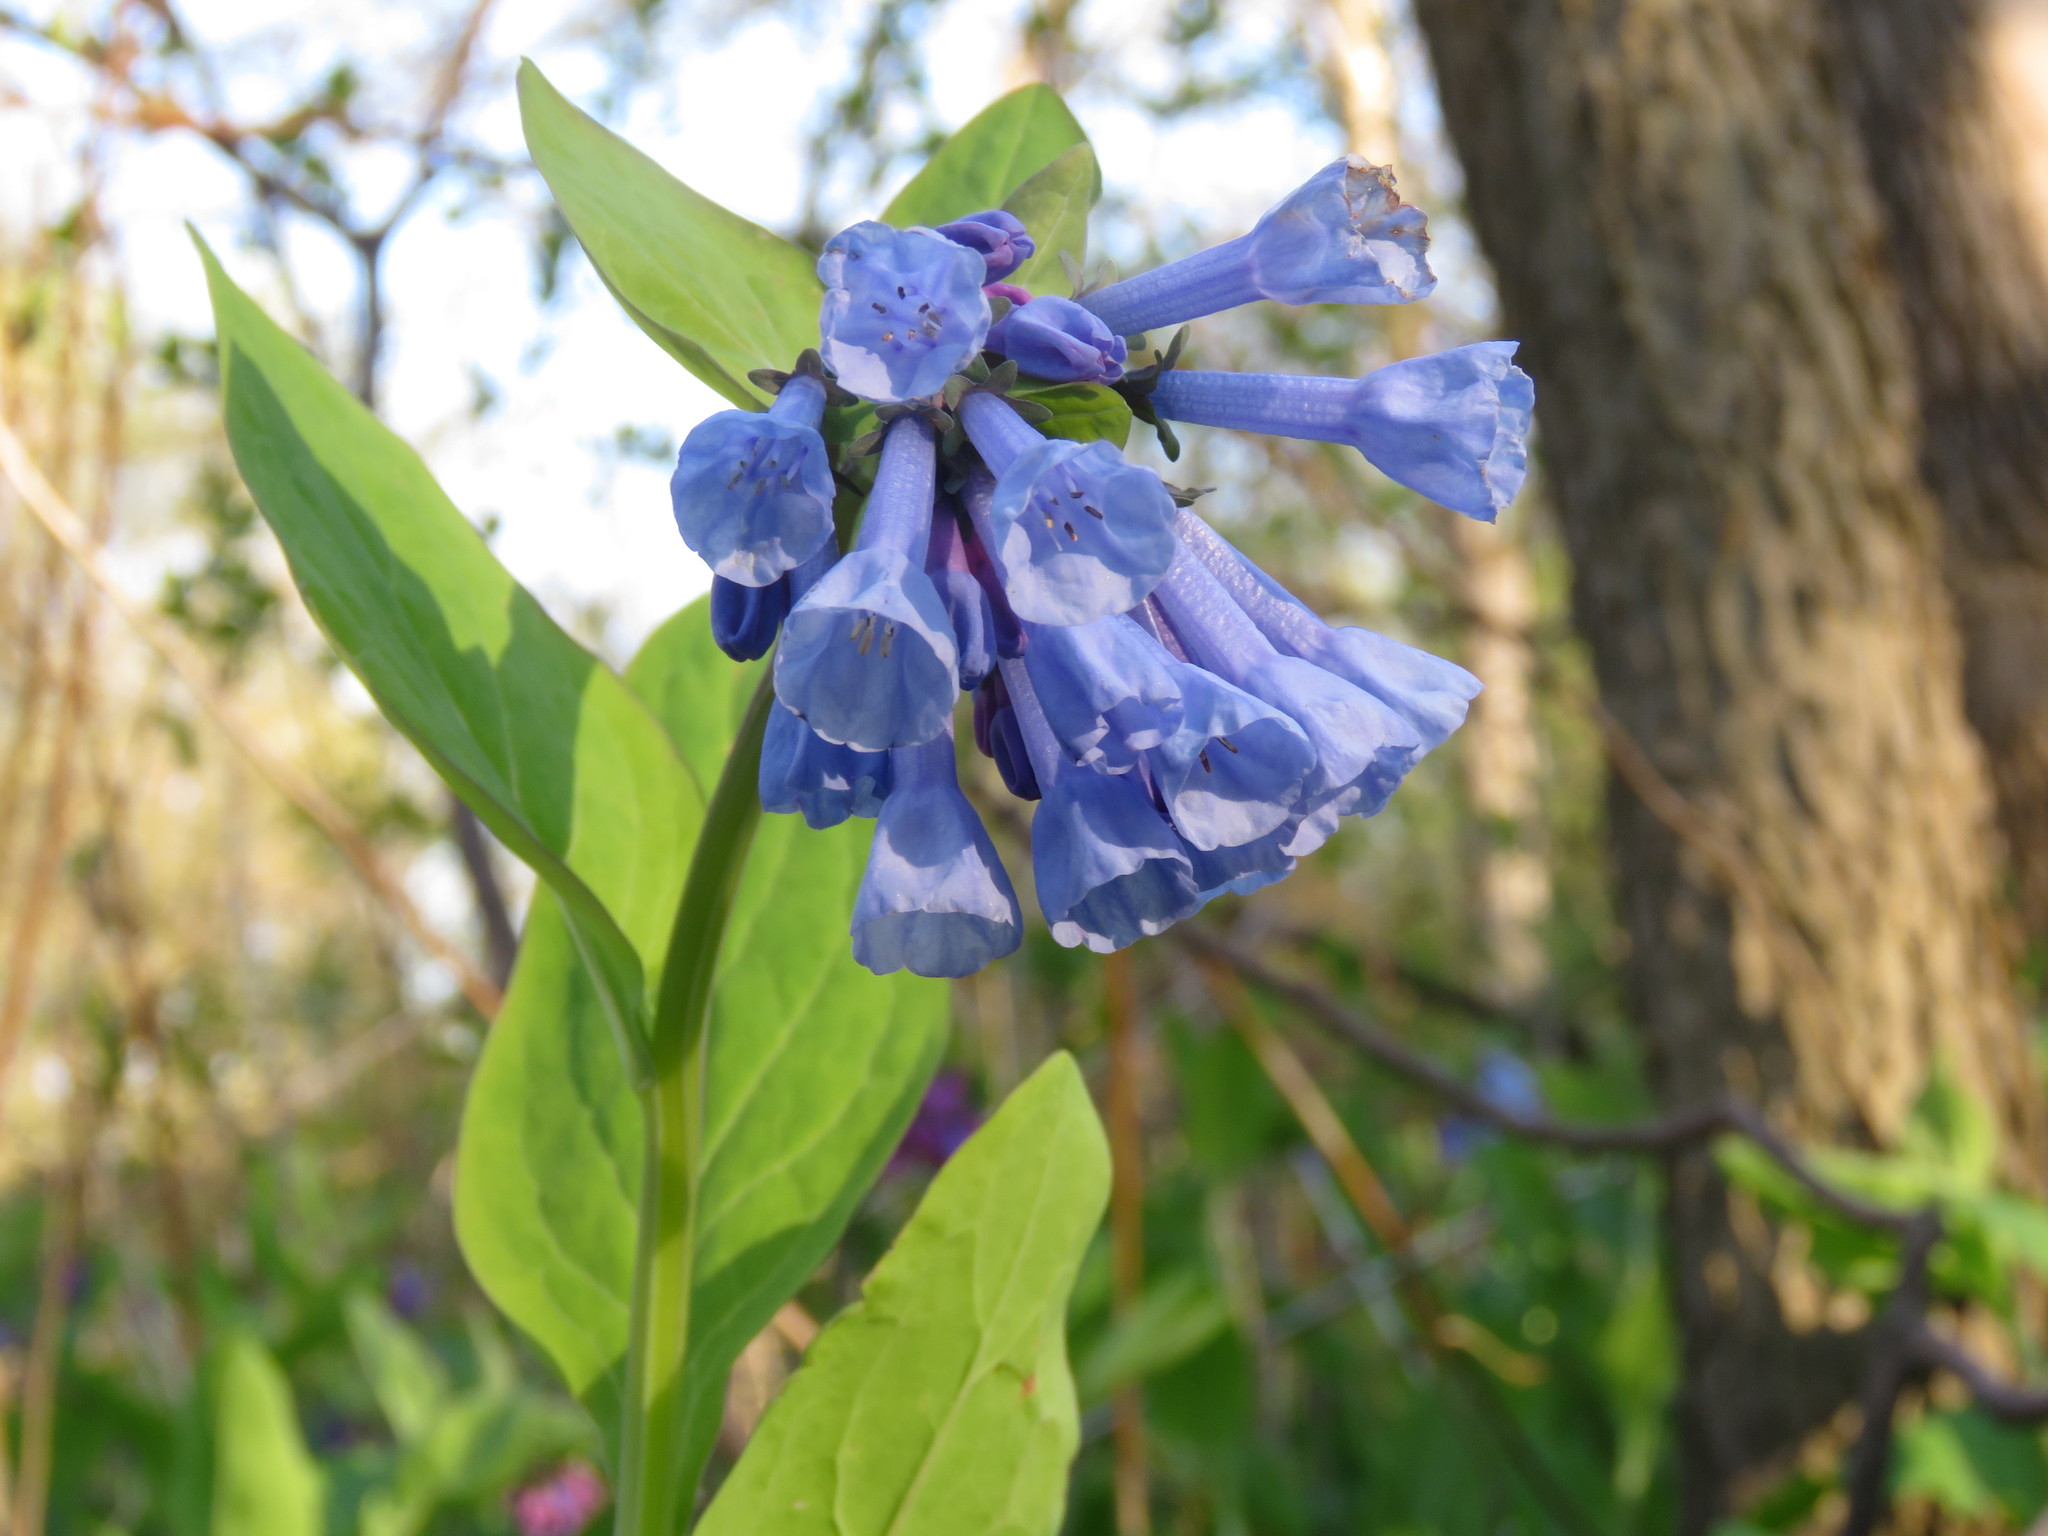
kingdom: Plantae
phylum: Tracheophyta
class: Magnoliopsida
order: Boraginales
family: Boraginaceae
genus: Mertensia
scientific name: Mertensia virginica
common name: Virginia bluebells
